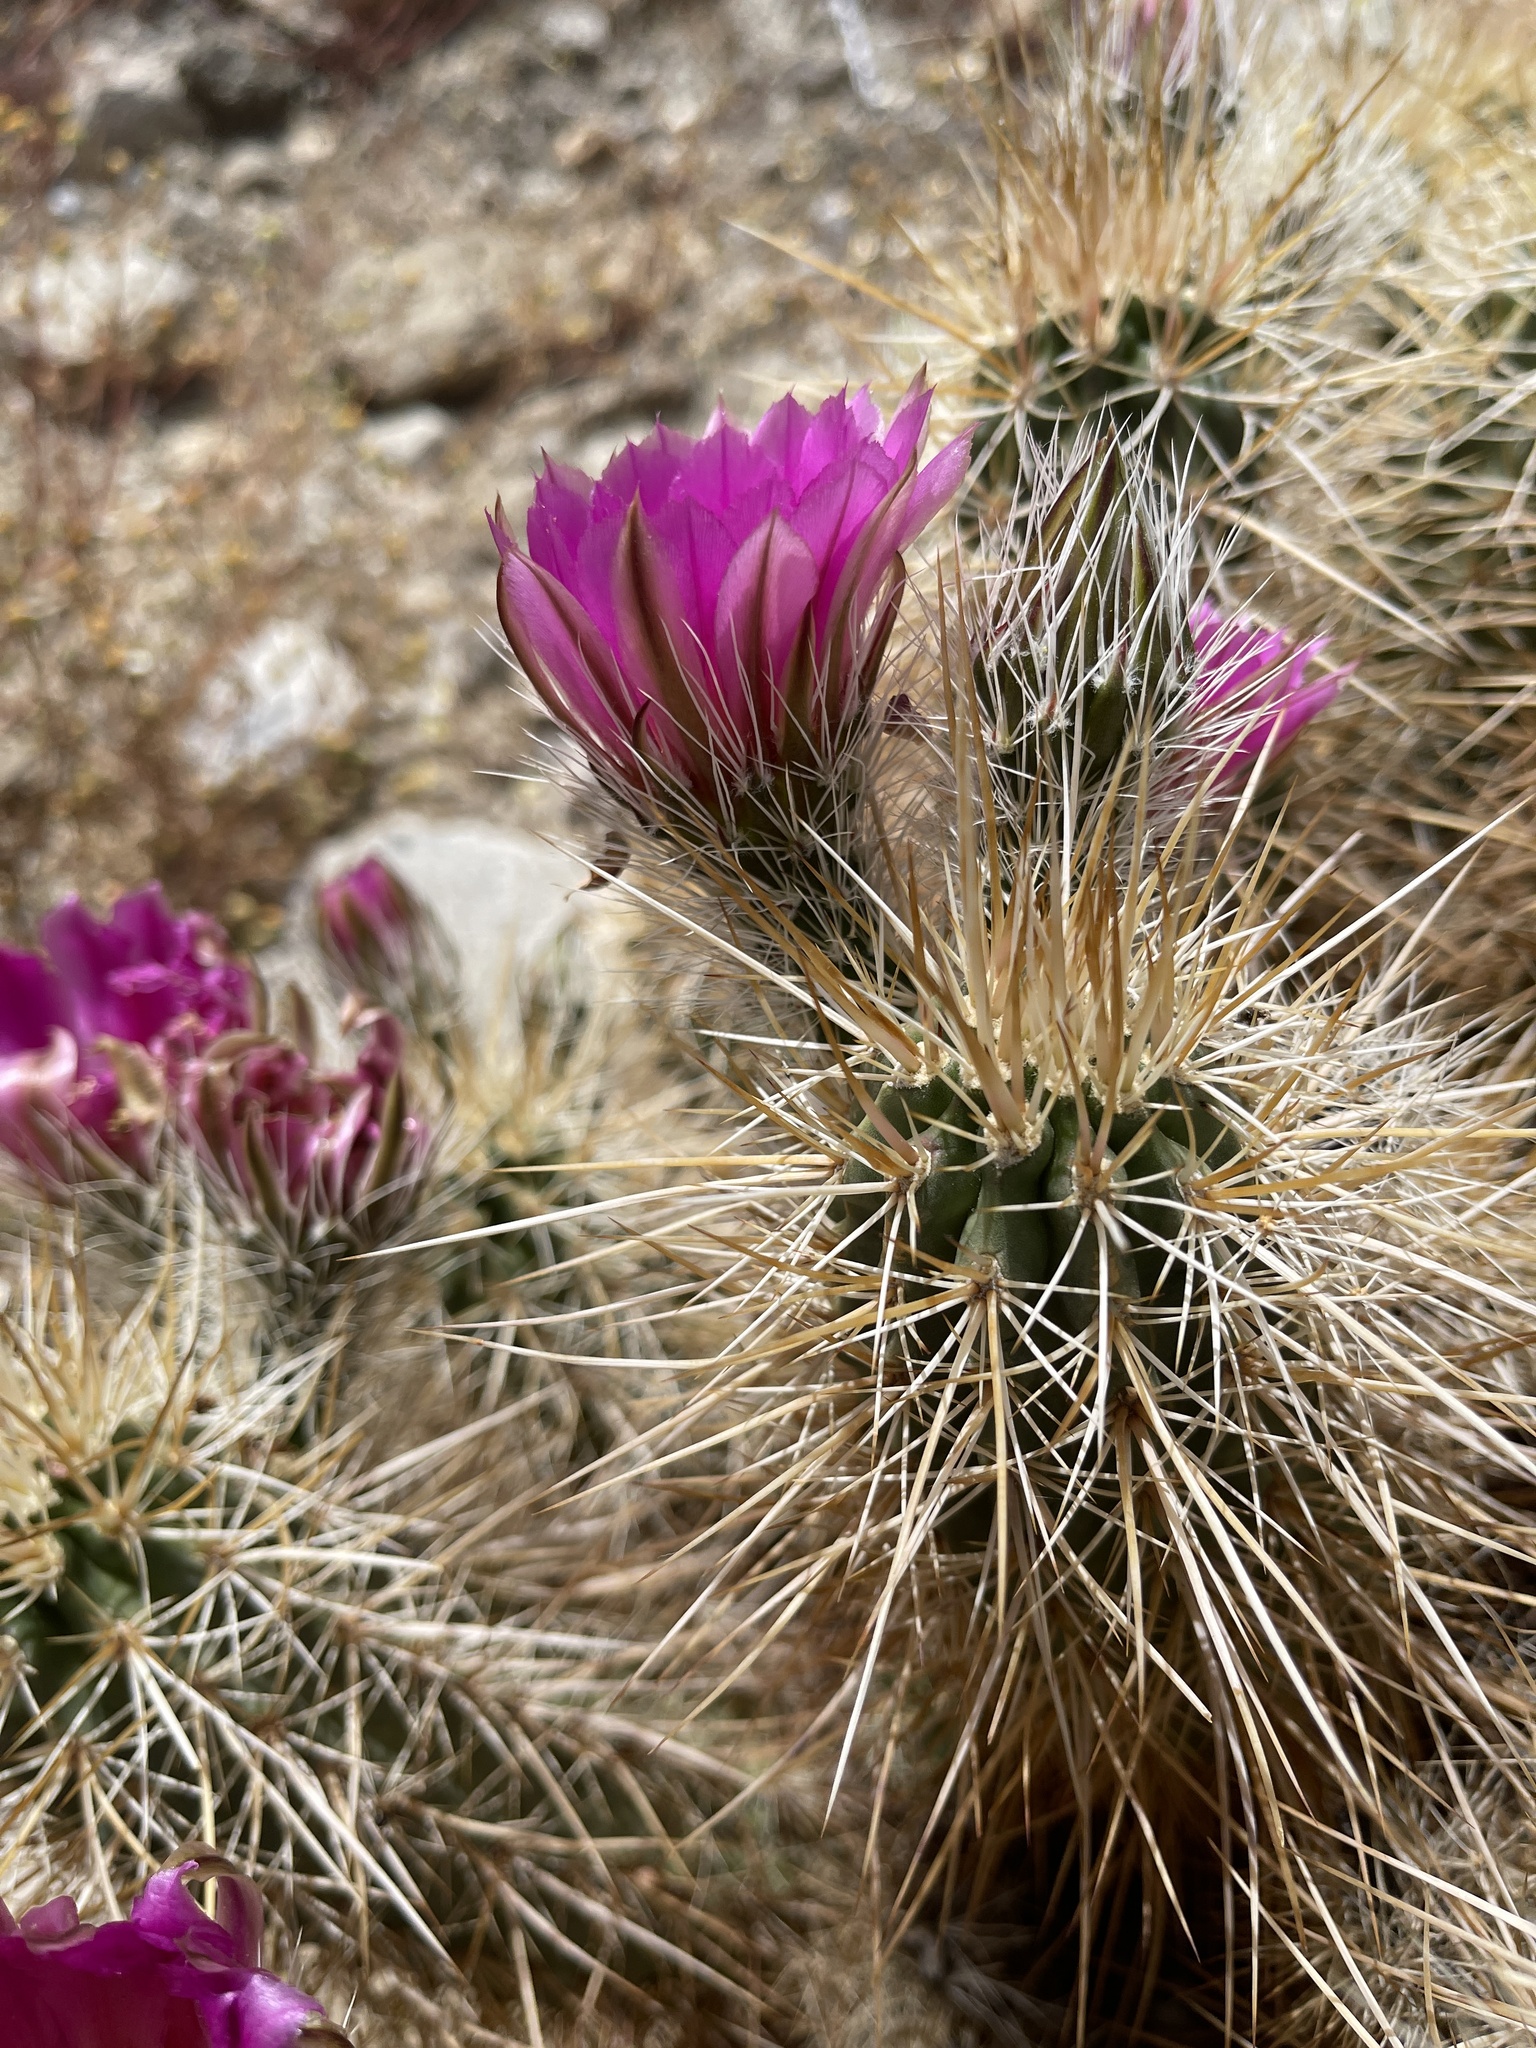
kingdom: Plantae
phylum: Tracheophyta
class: Magnoliopsida
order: Caryophyllales
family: Cactaceae
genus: Echinocereus
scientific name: Echinocereus engelmannii
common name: Engelmann's hedgehog cactus
